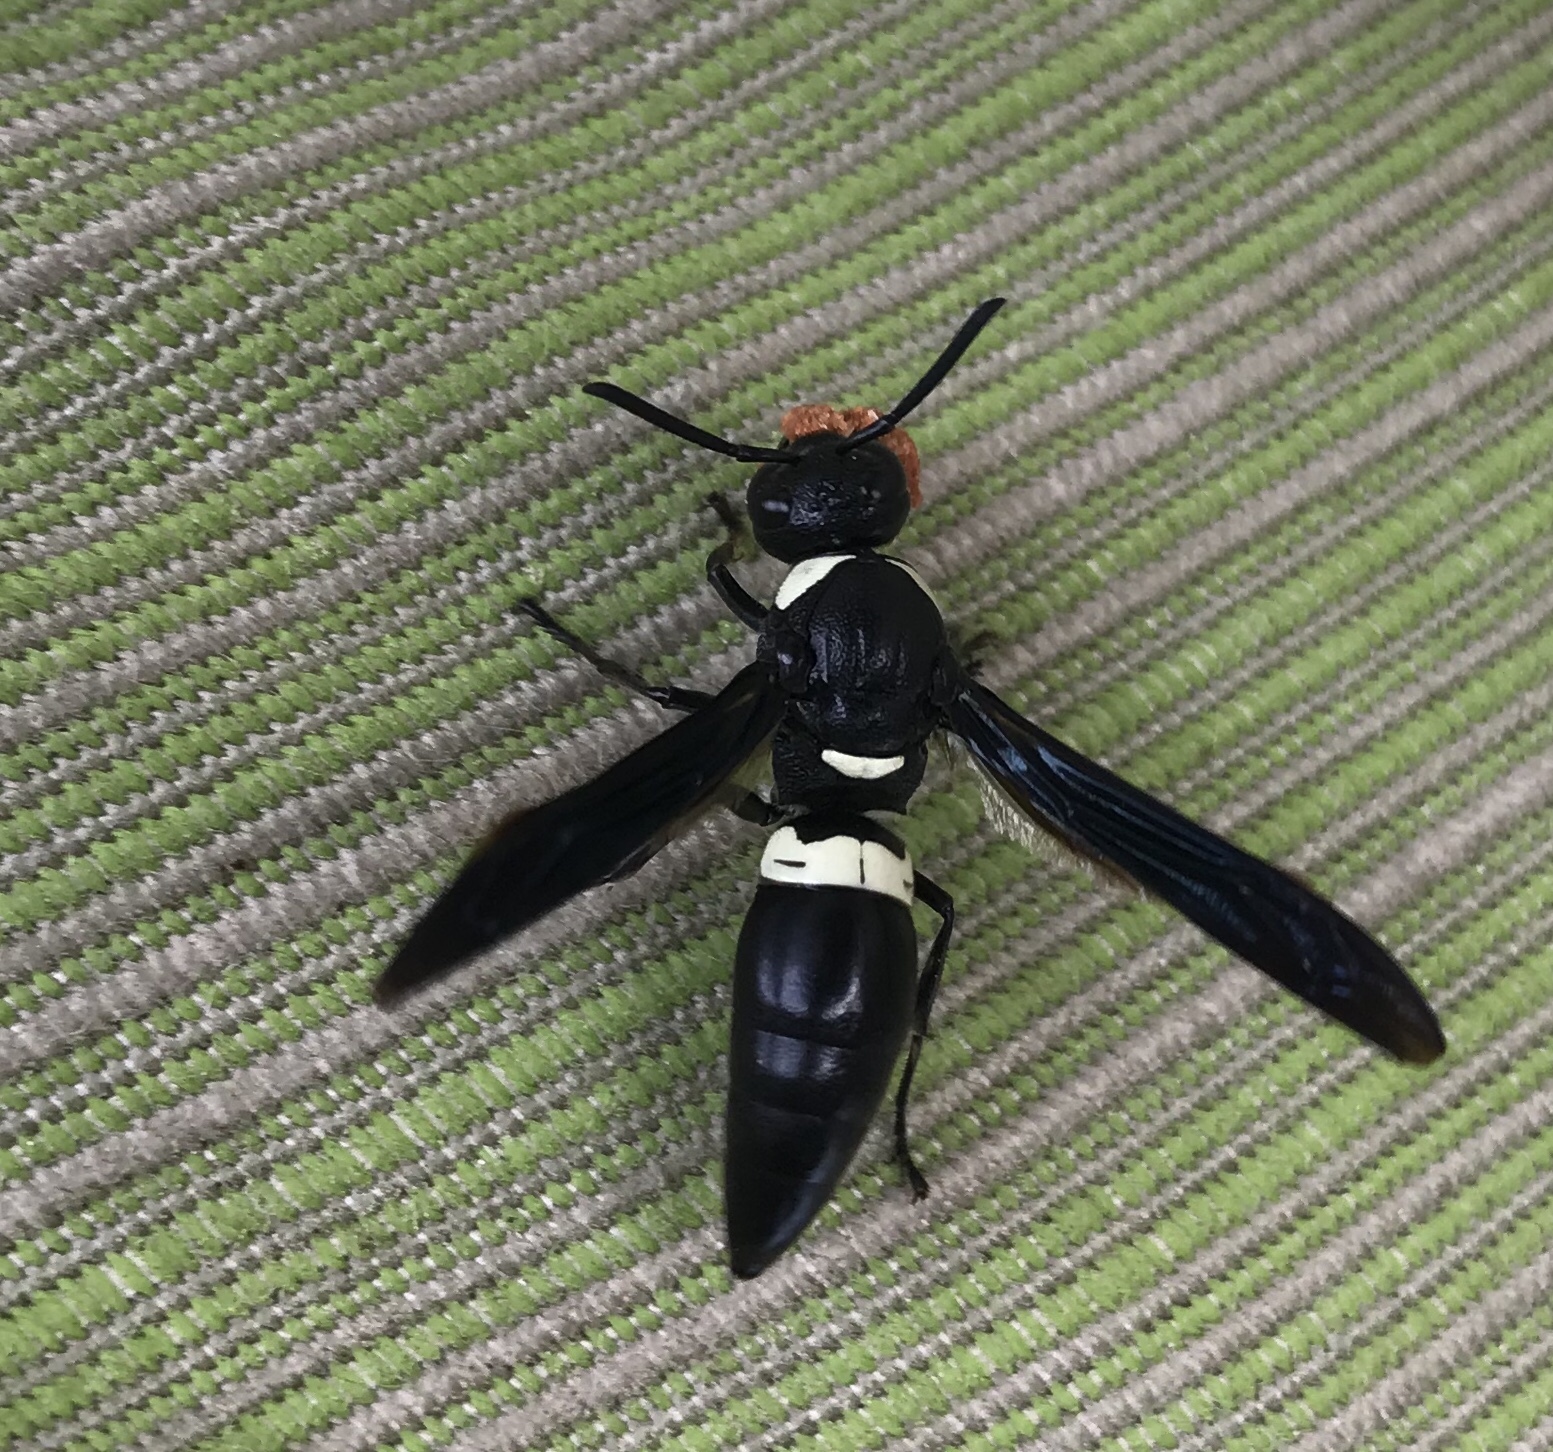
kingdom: Animalia
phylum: Arthropoda
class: Insecta
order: Hymenoptera
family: Eumenidae
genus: Monobia
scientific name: Monobia quadridens
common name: Four-toothed mason wasp
